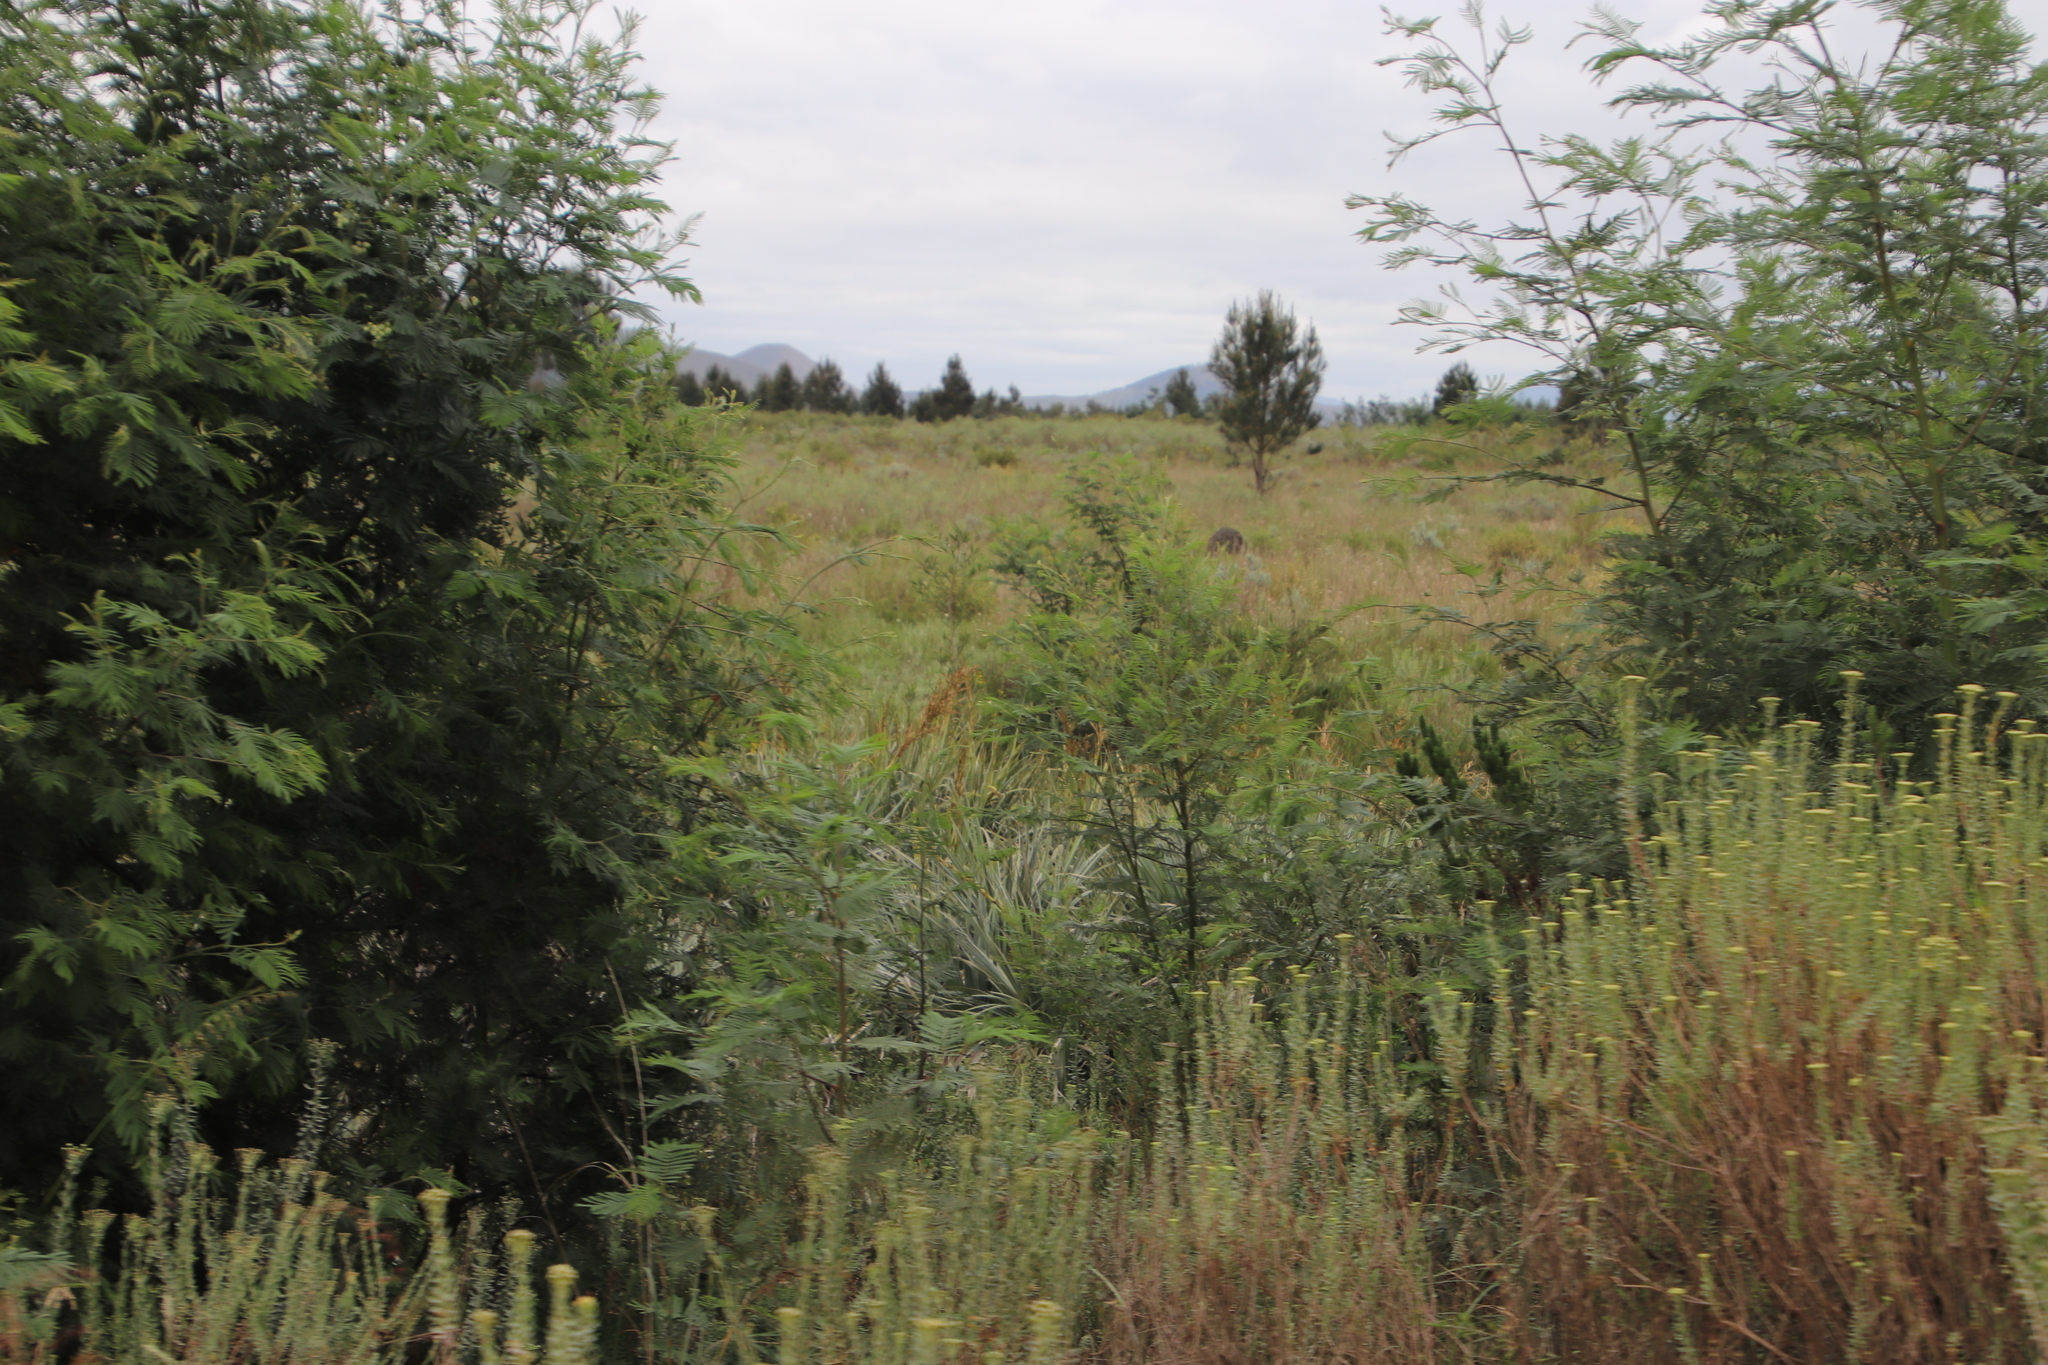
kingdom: Plantae
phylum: Tracheophyta
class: Liliopsida
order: Poales
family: Thurniaceae
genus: Prionium
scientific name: Prionium serratum
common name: Palmiet
